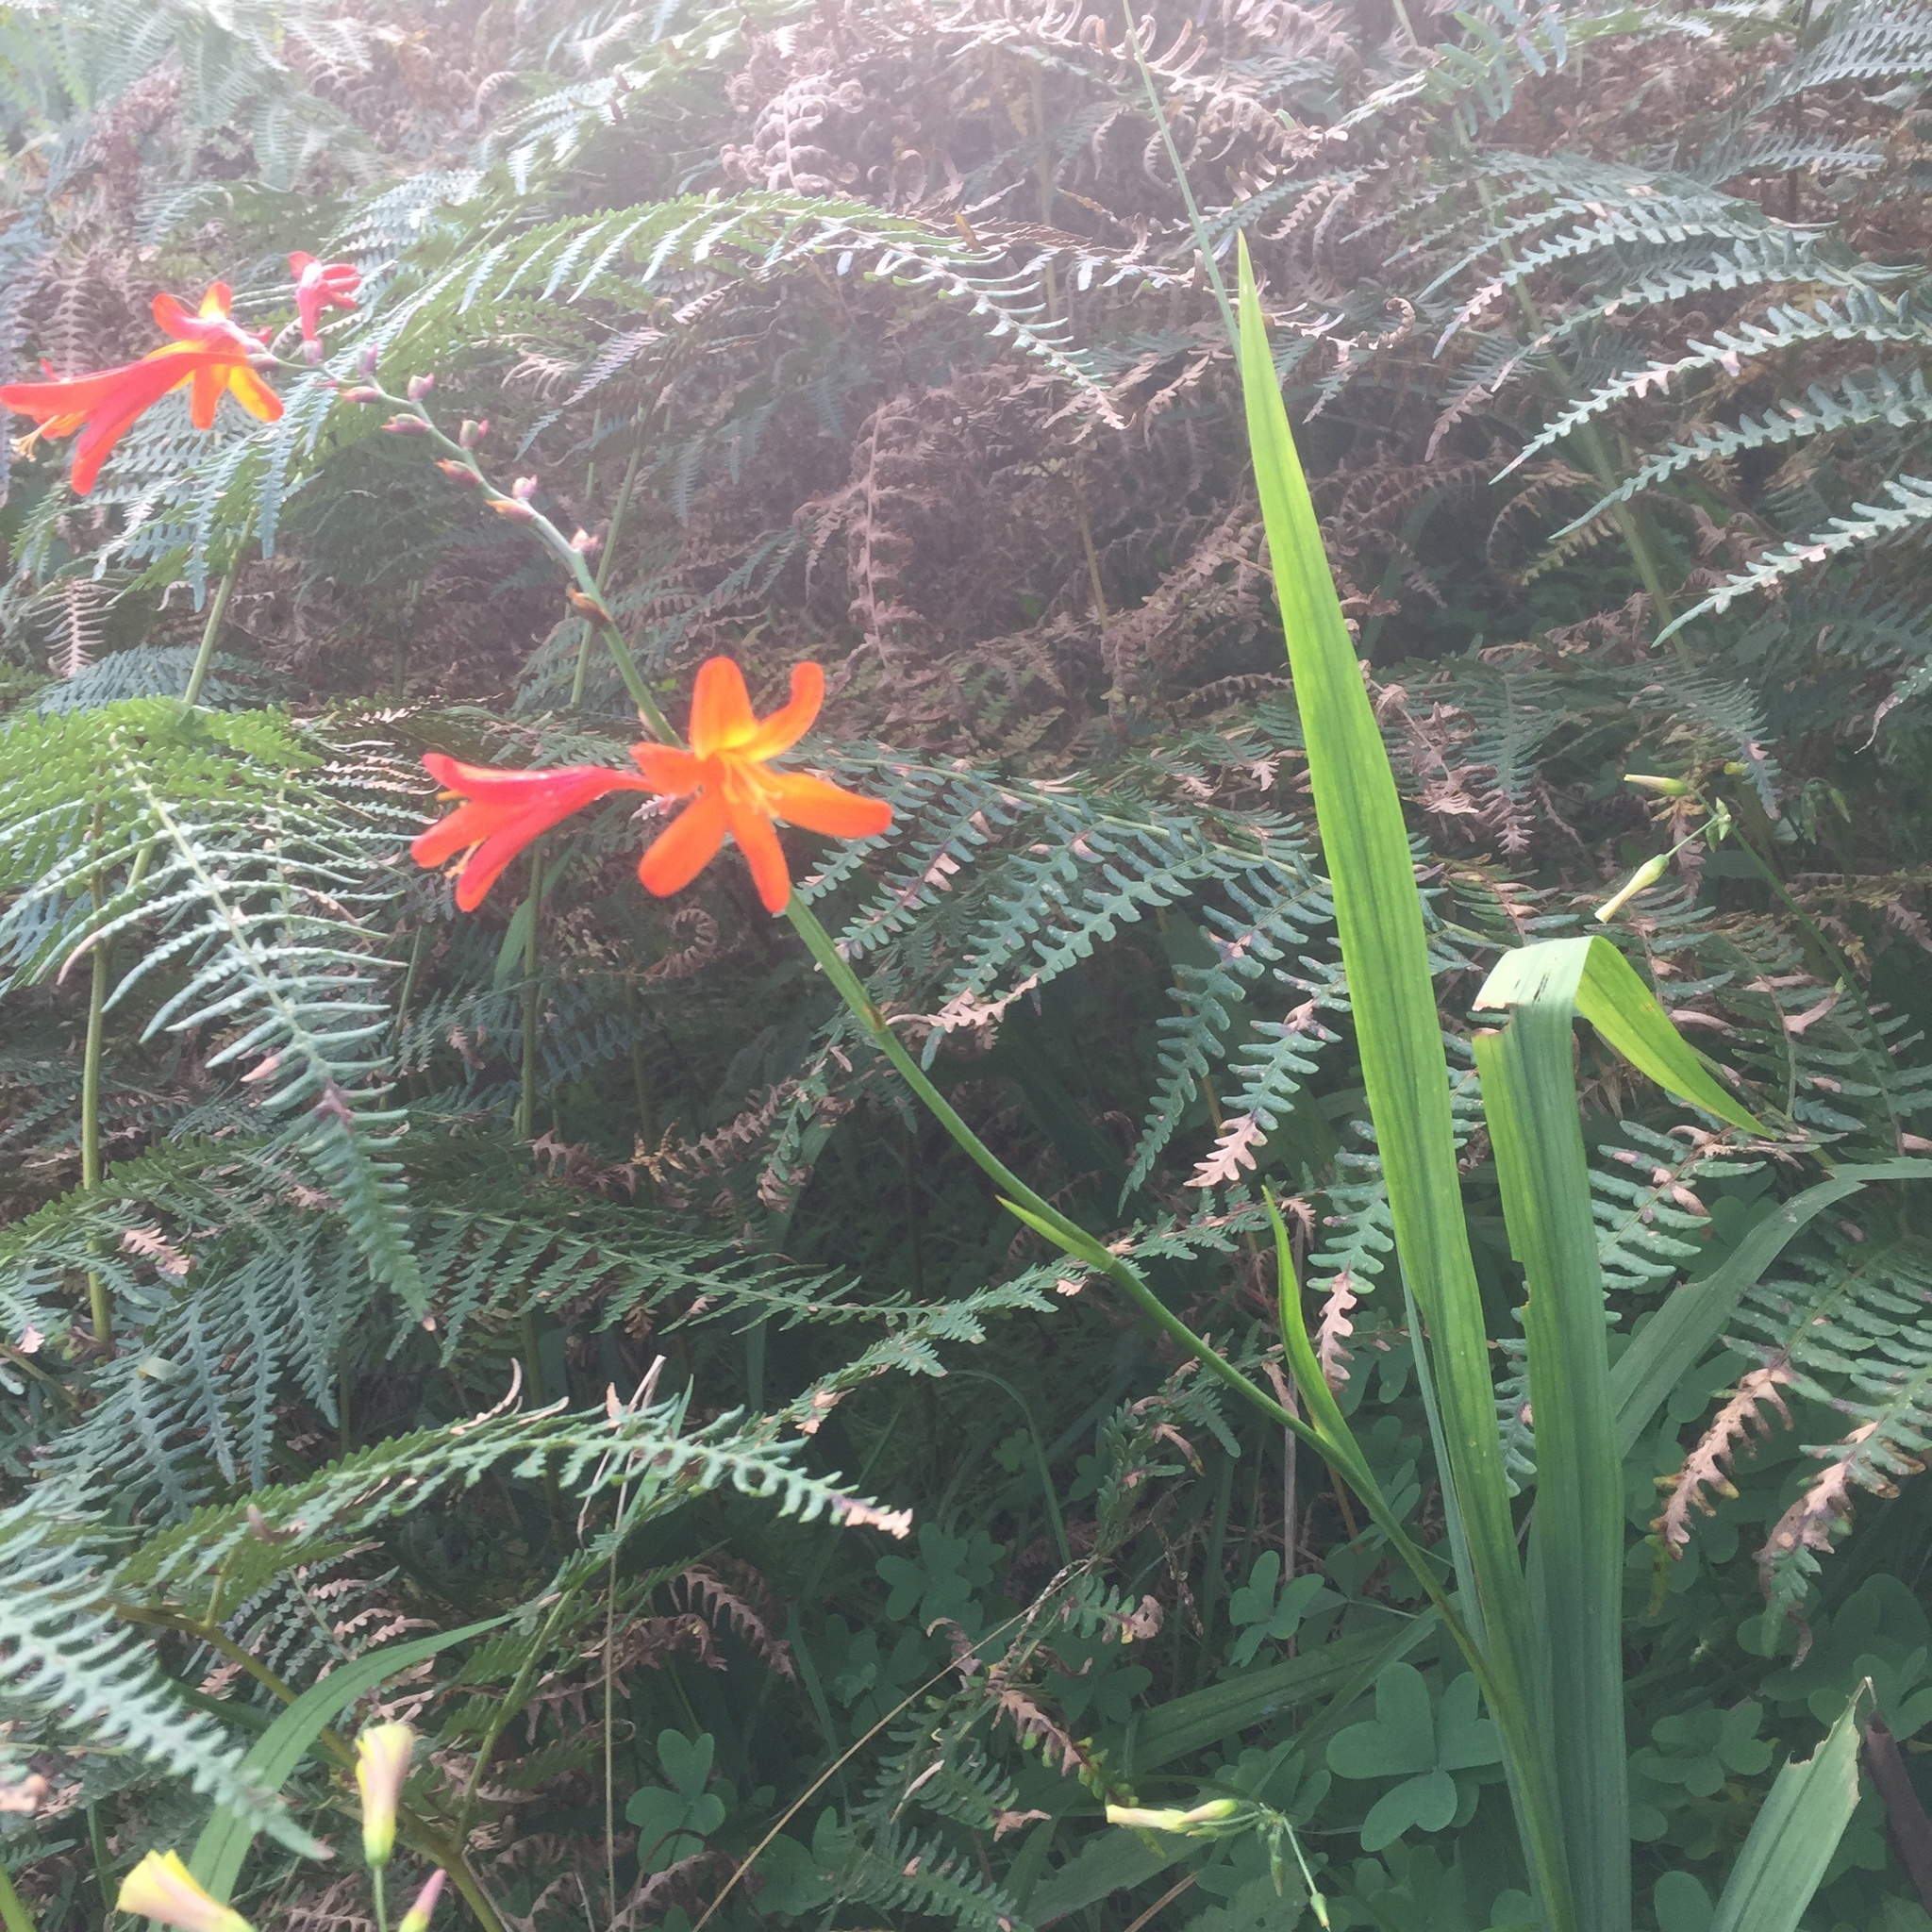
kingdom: Plantae
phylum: Tracheophyta
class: Liliopsida
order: Asparagales
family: Iridaceae
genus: Crocosmia
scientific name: Crocosmia crocosmiiflora
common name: Montbretia
